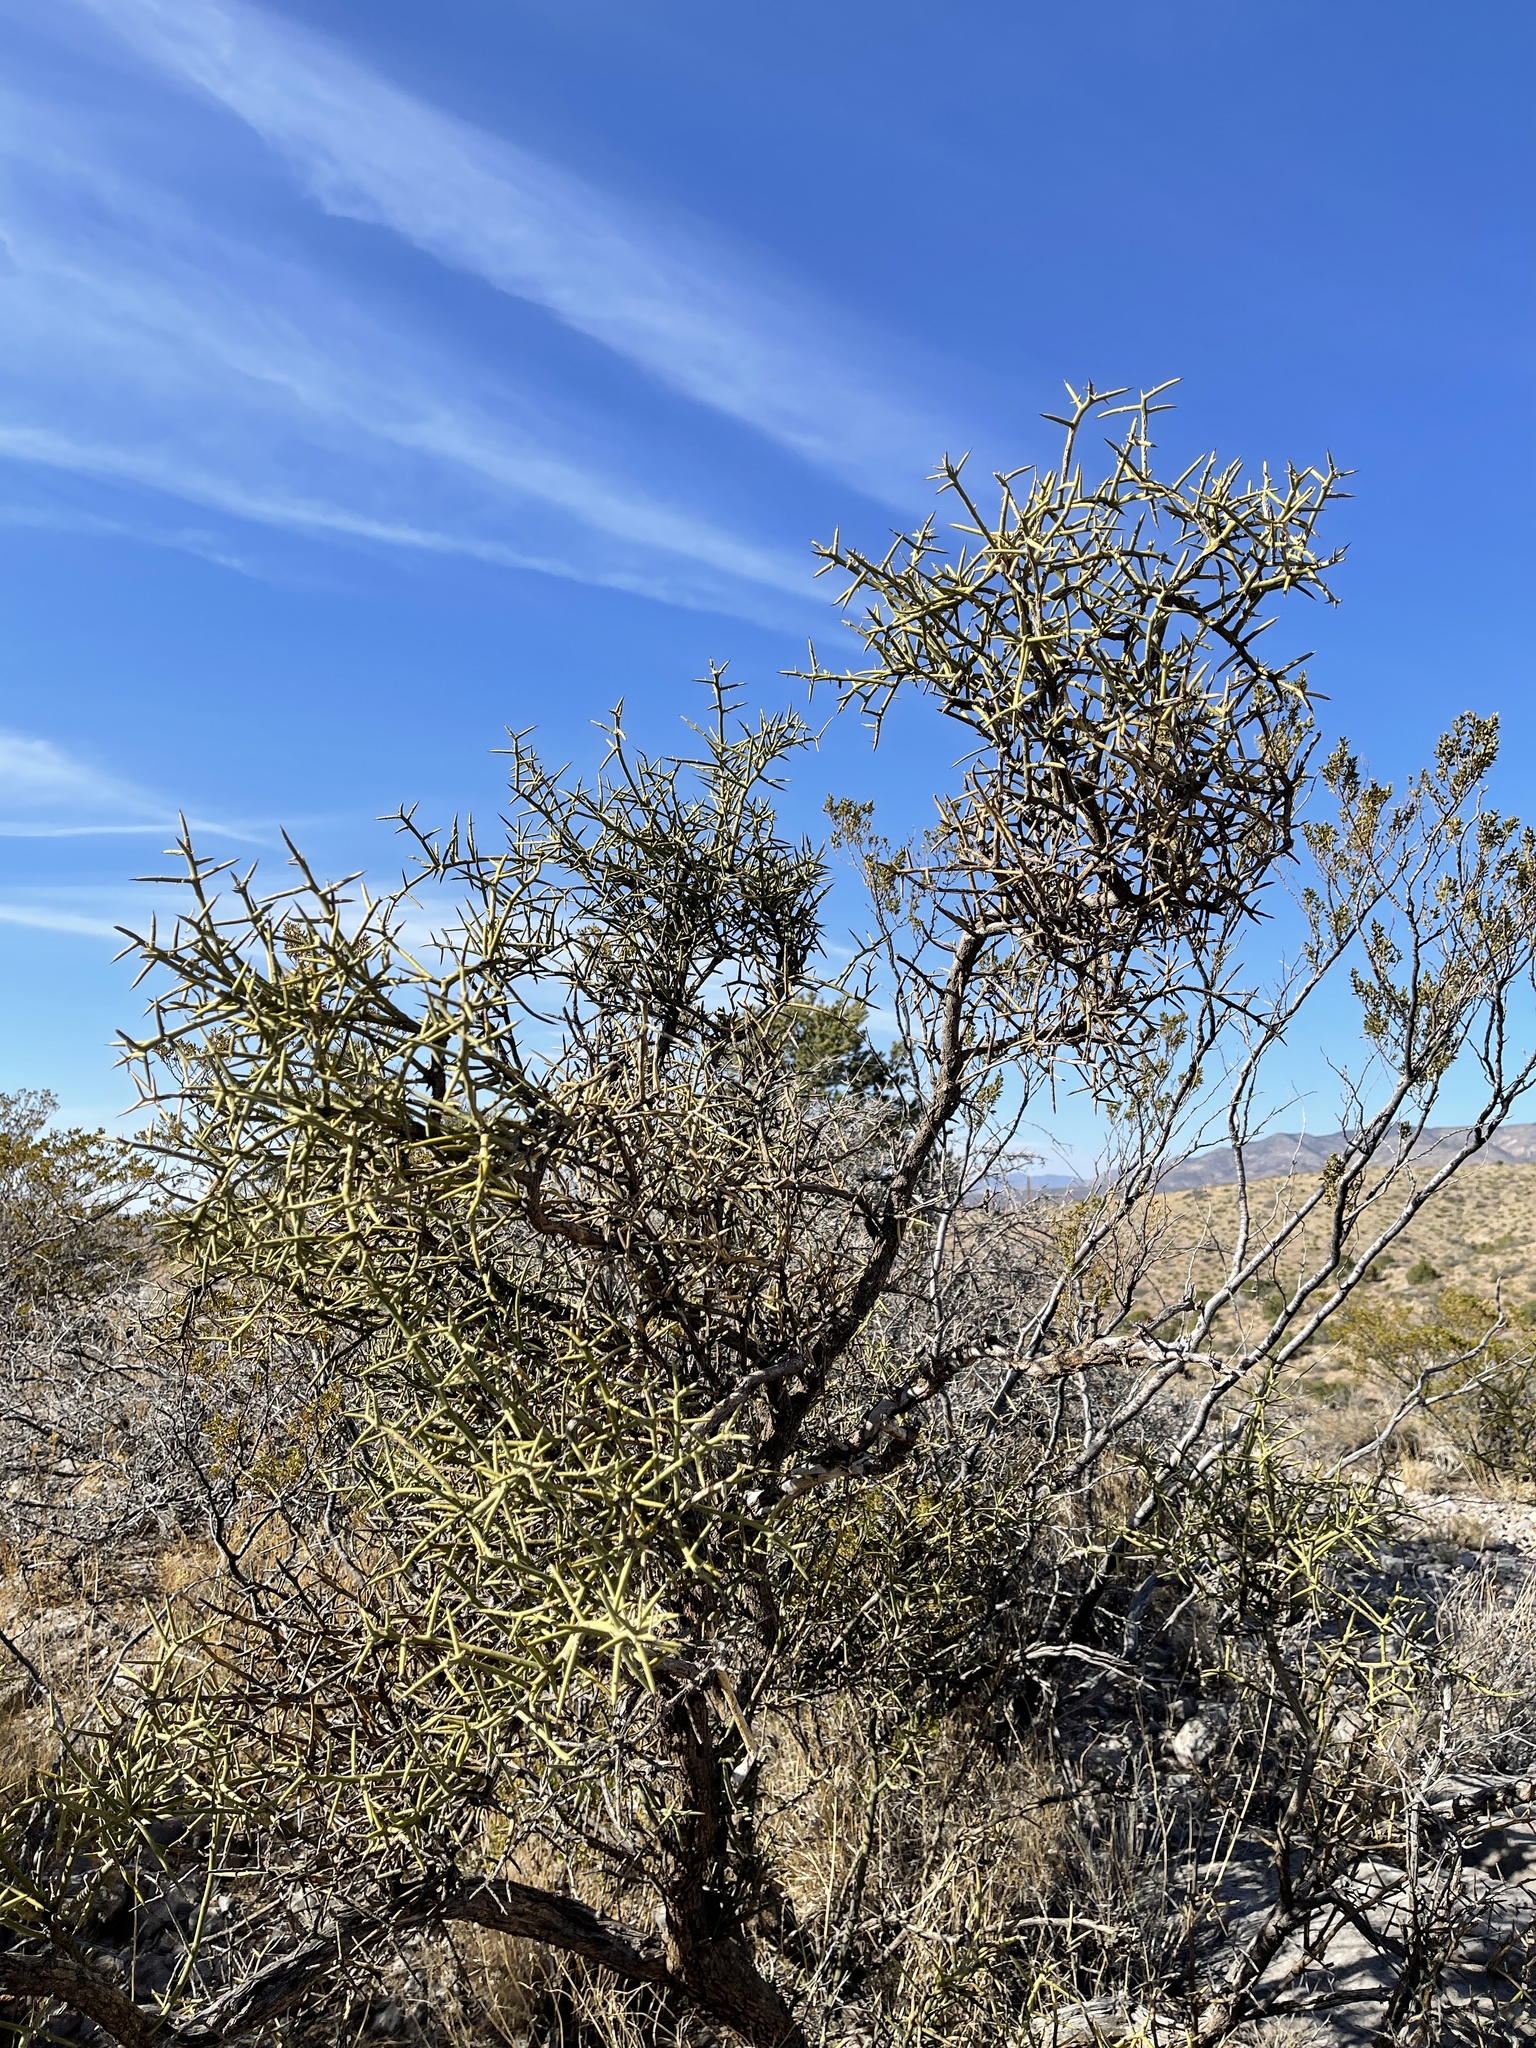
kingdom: Plantae
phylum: Tracheophyta
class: Magnoliopsida
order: Brassicales
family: Koeberliniaceae
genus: Koeberlinia
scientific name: Koeberlinia spinosa
